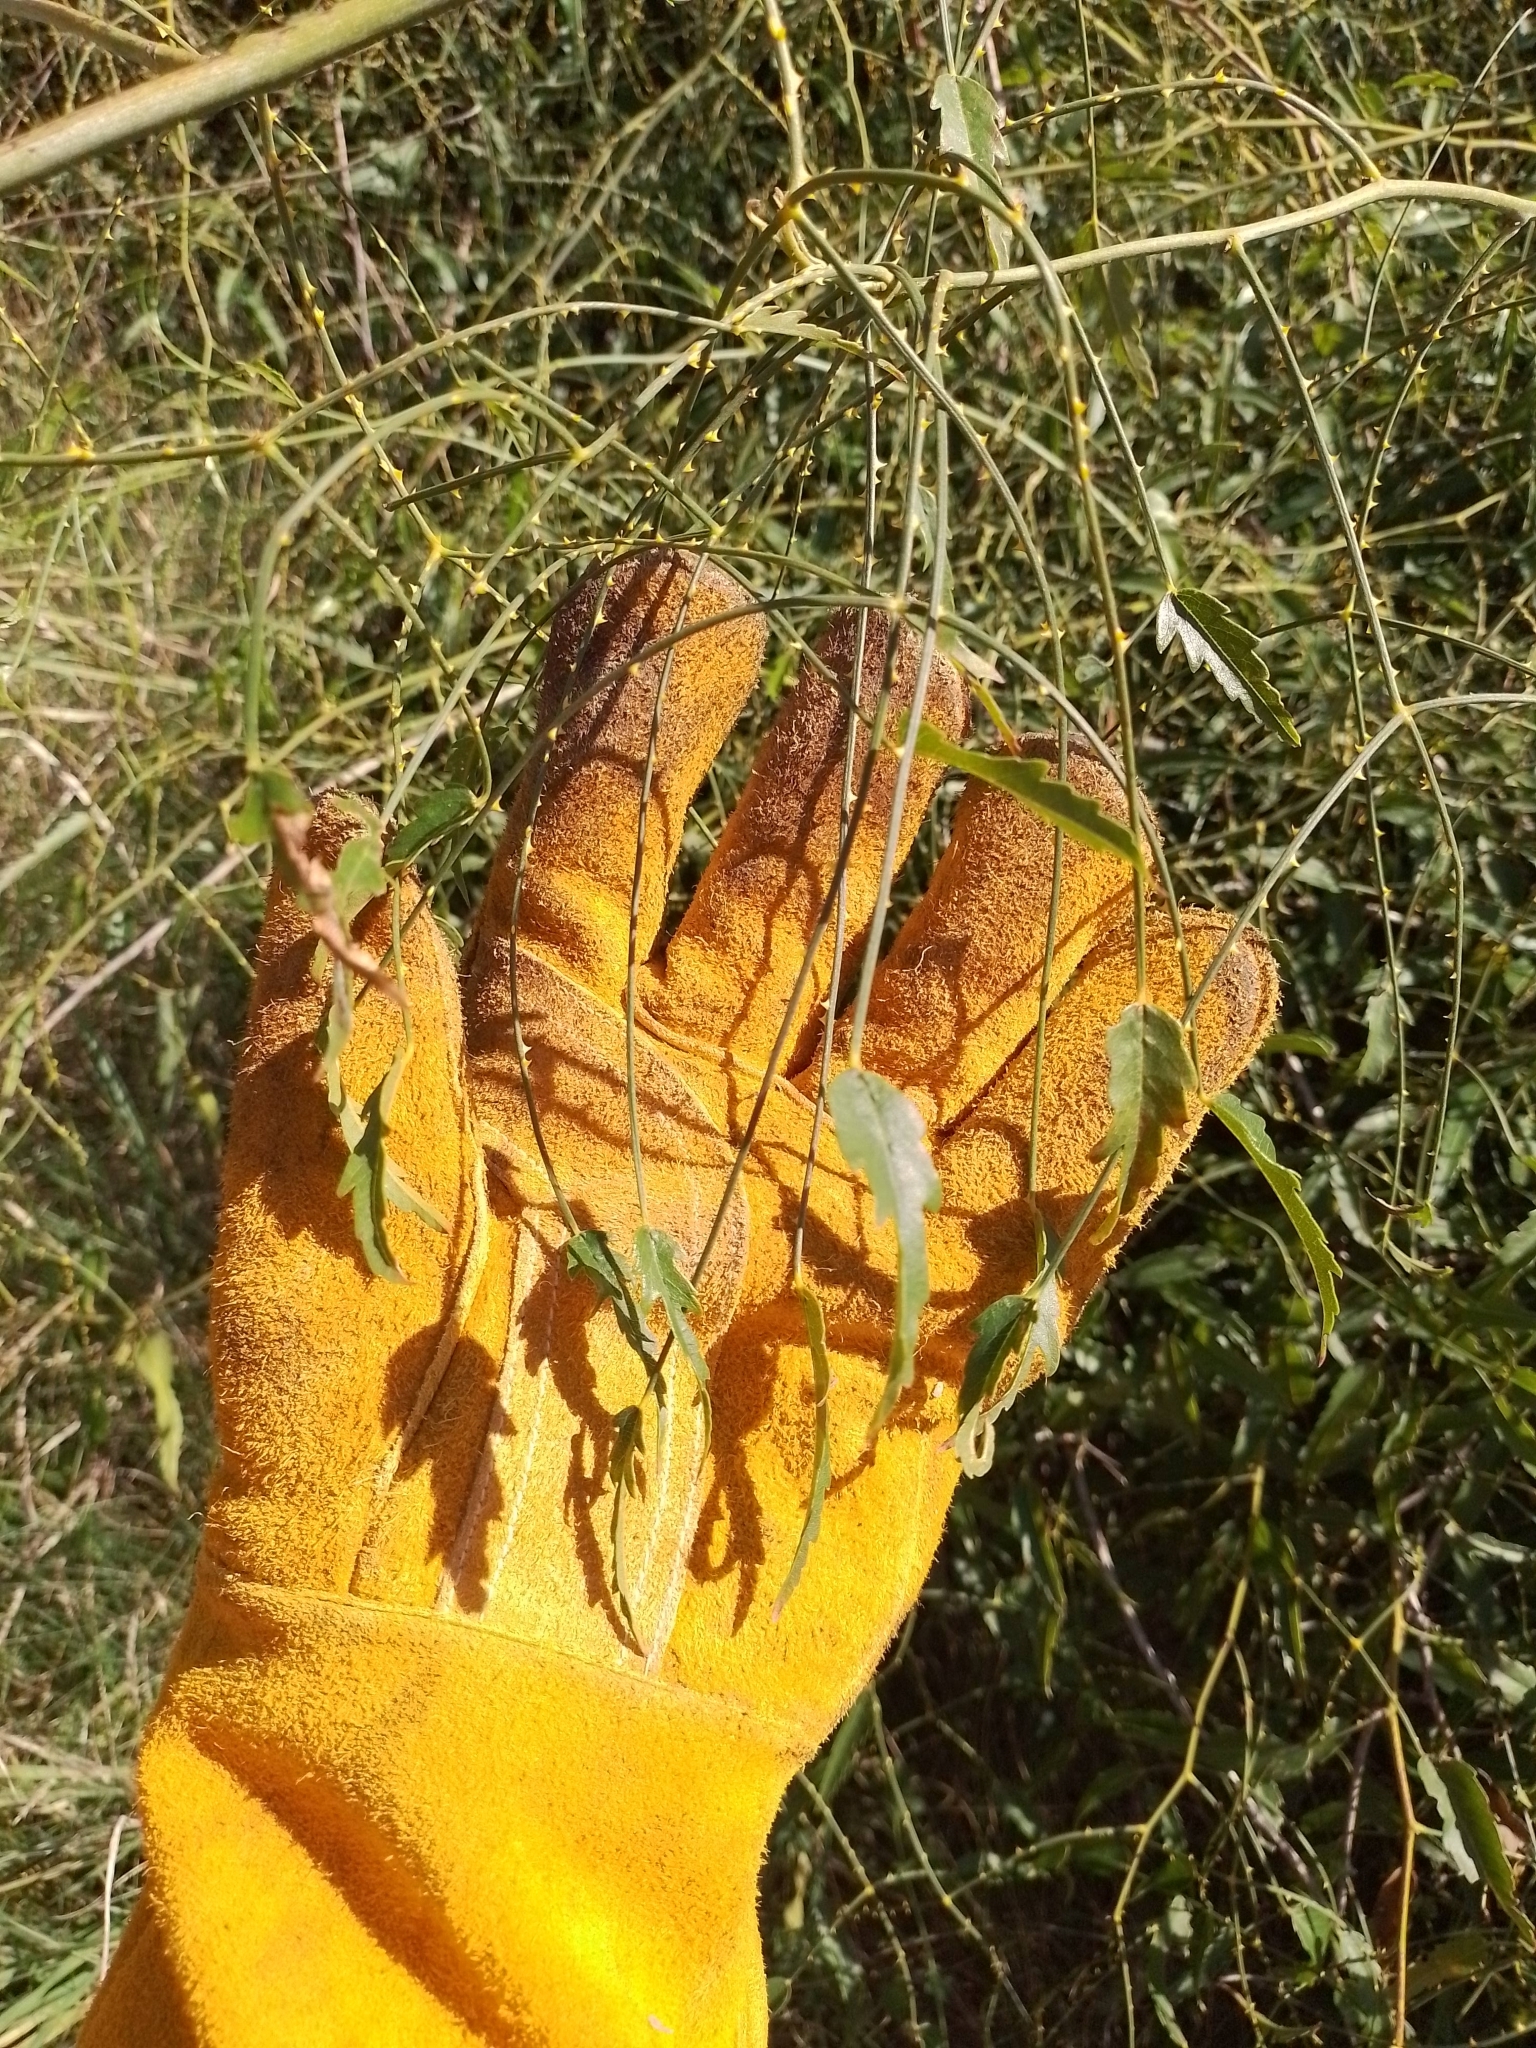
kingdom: Plantae
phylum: Tracheophyta
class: Magnoliopsida
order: Rosales
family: Rosaceae
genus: Rubus
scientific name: Rubus squarrosus
